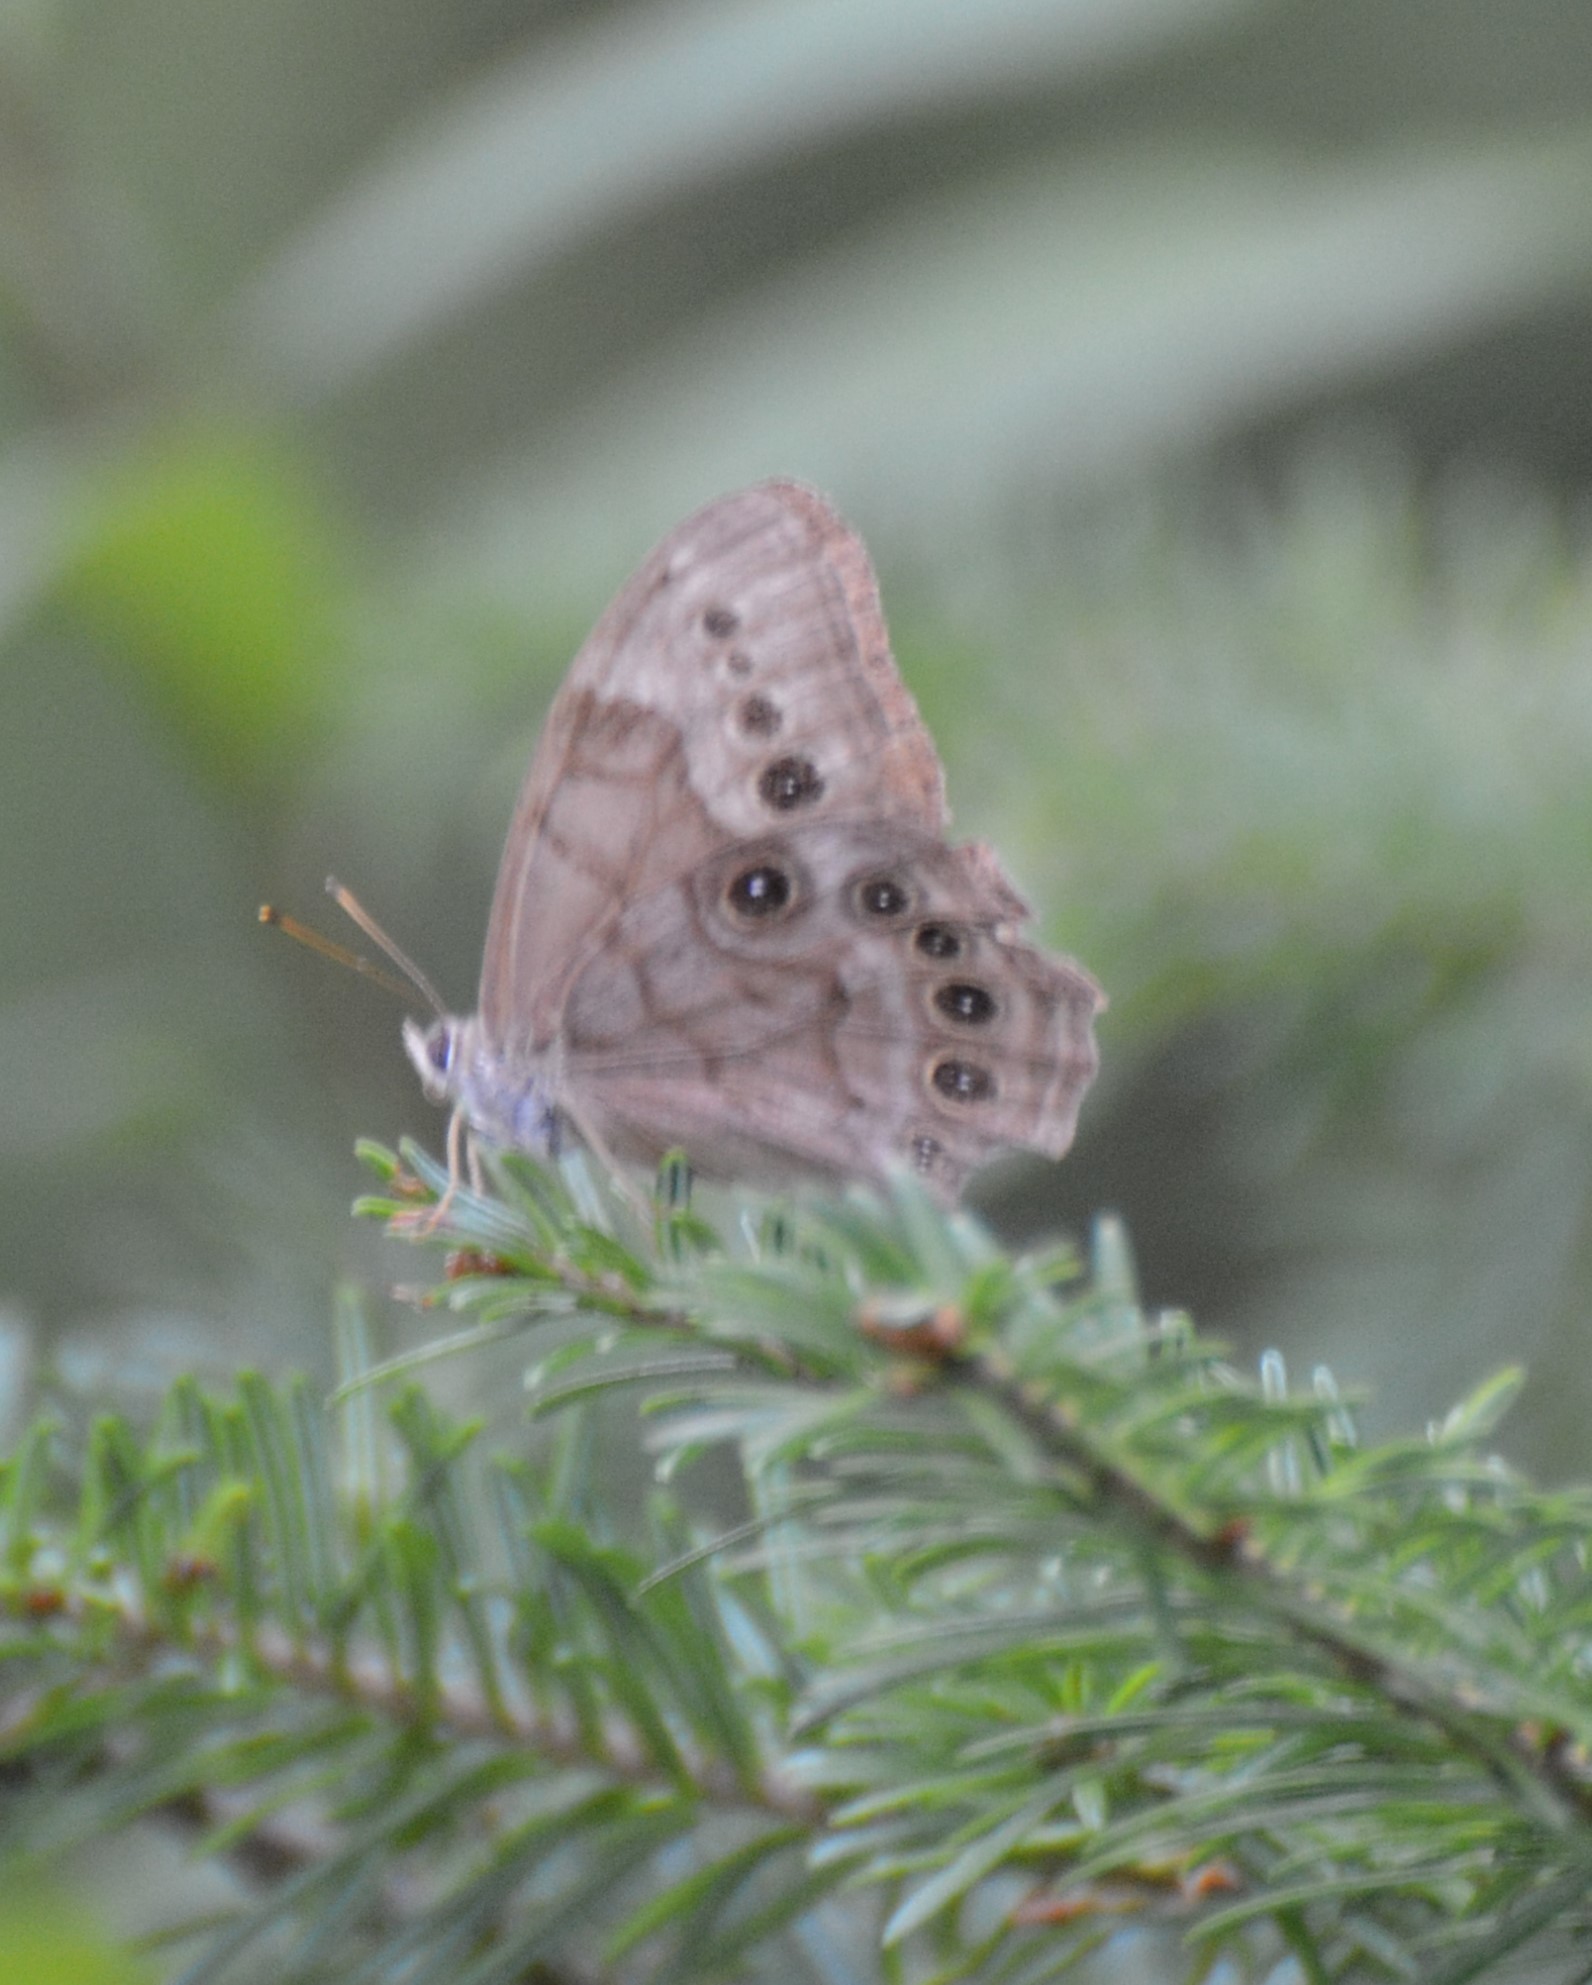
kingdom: Animalia
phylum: Arthropoda
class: Insecta
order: Lepidoptera
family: Nymphalidae
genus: Lethe
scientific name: Lethe anthedon
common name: Northern pearly-eye
